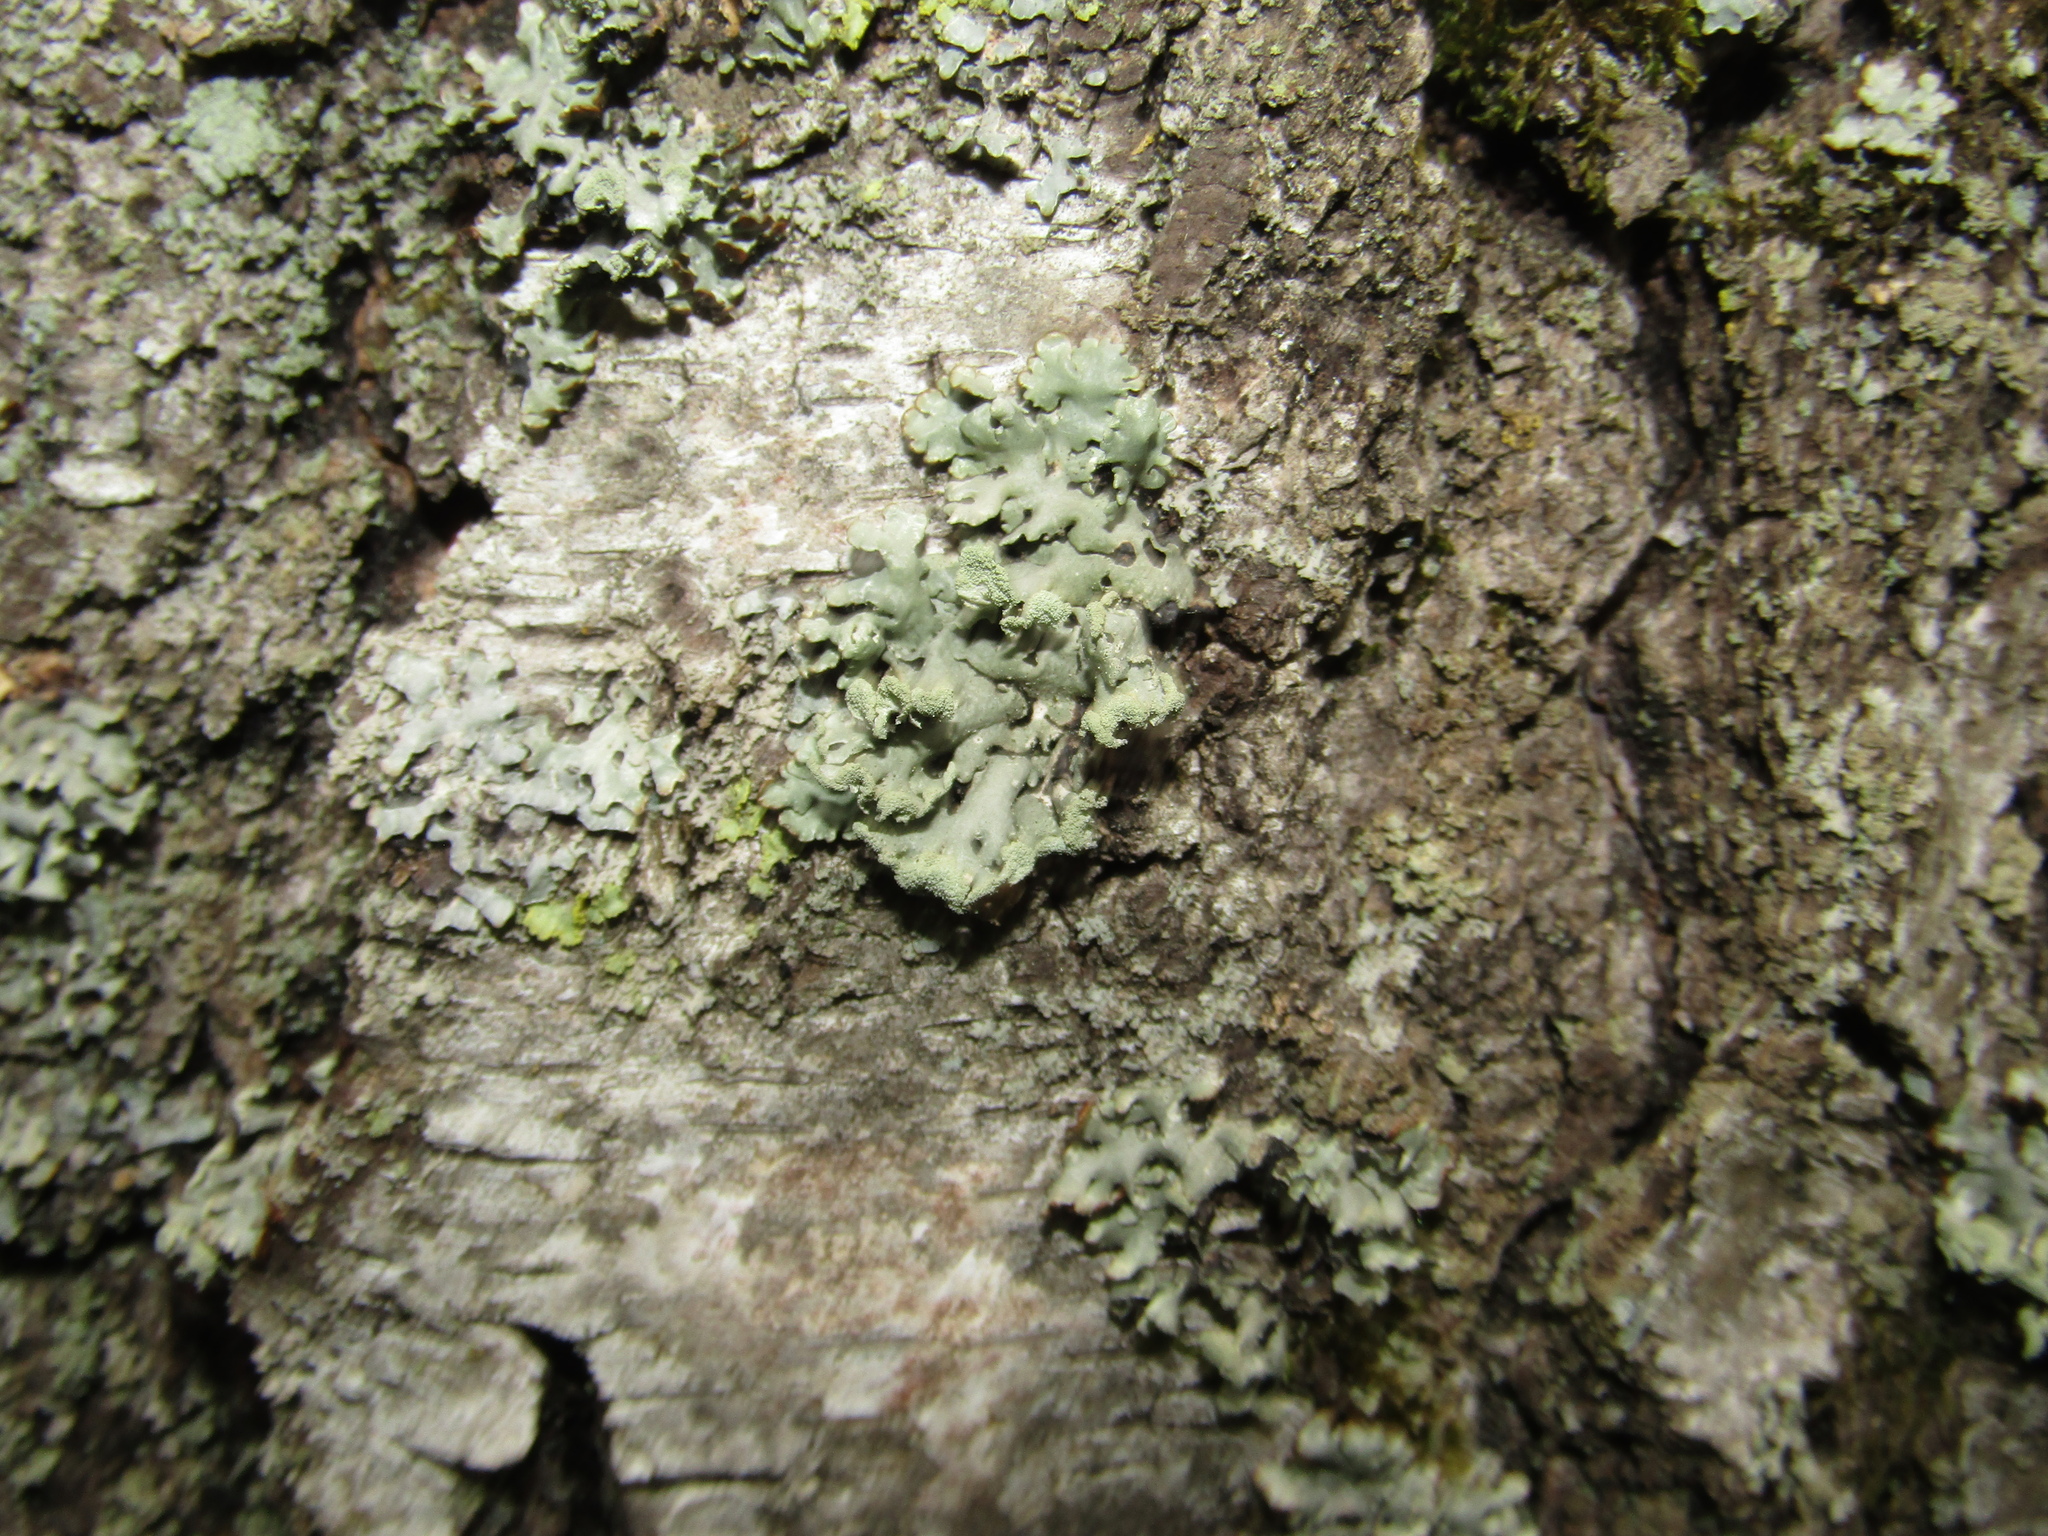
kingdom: Fungi
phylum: Ascomycota
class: Lecanoromycetes
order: Lecanorales
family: Parmeliaceae
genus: Hypogymnia
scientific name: Hypogymnia physodes
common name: Dark crottle
